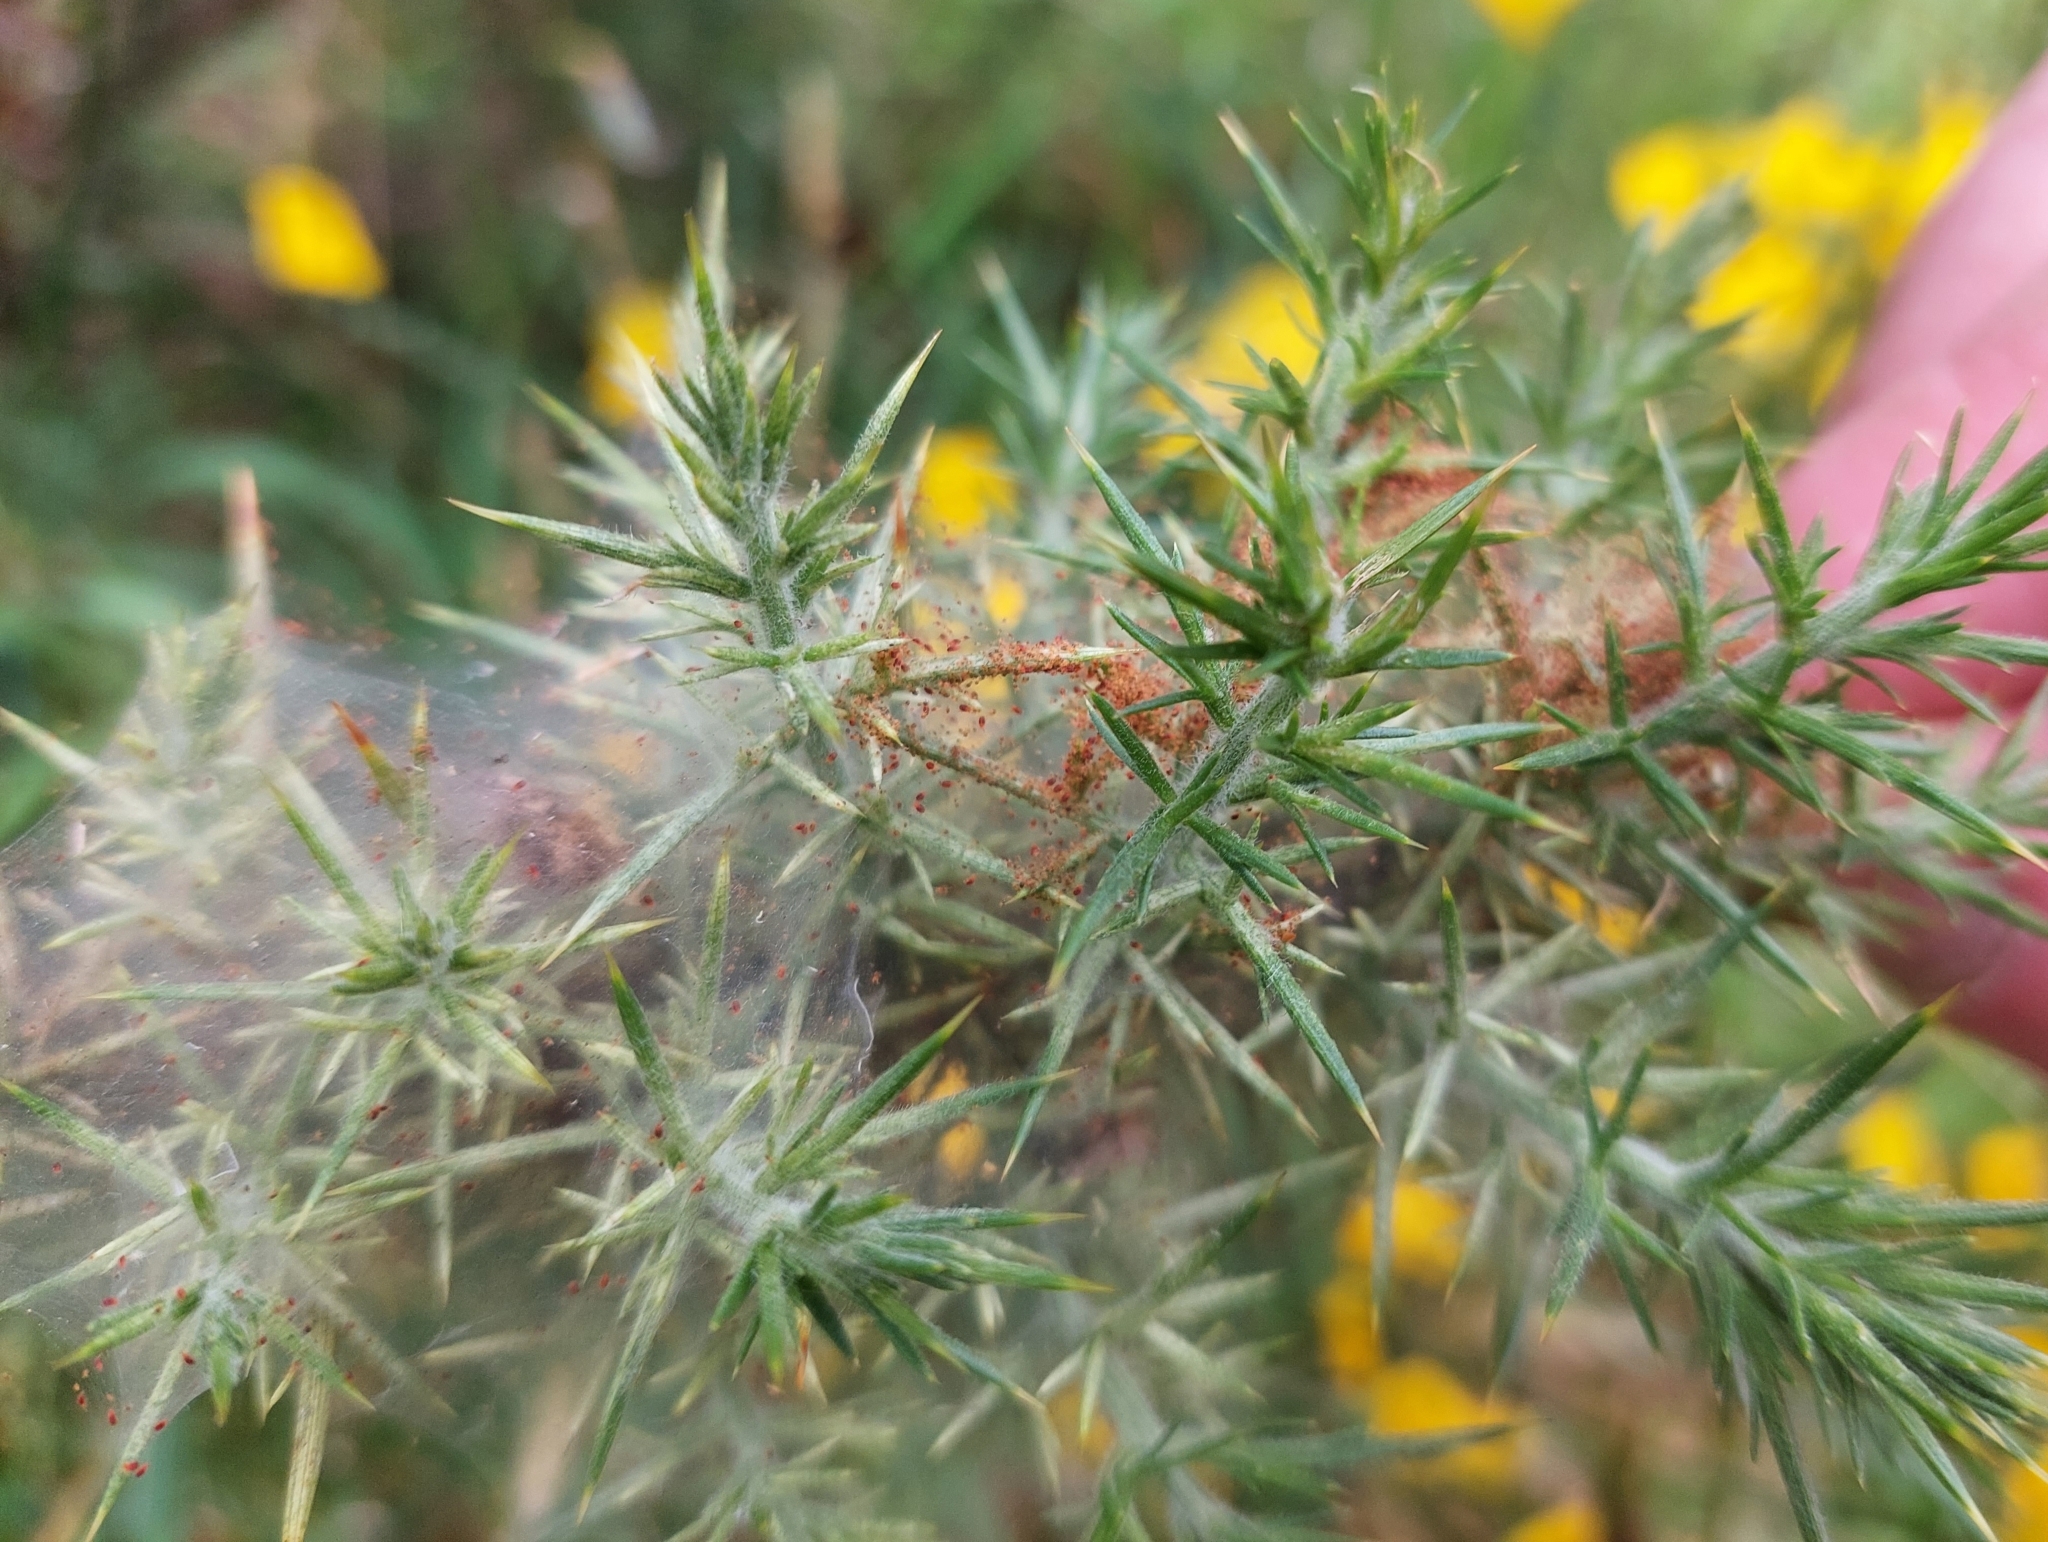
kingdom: Animalia
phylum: Arthropoda
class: Arachnida
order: Trombidiformes
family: Tetranychidae
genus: Tetranychus
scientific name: Tetranychus lintearius
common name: Gorse spider mite
